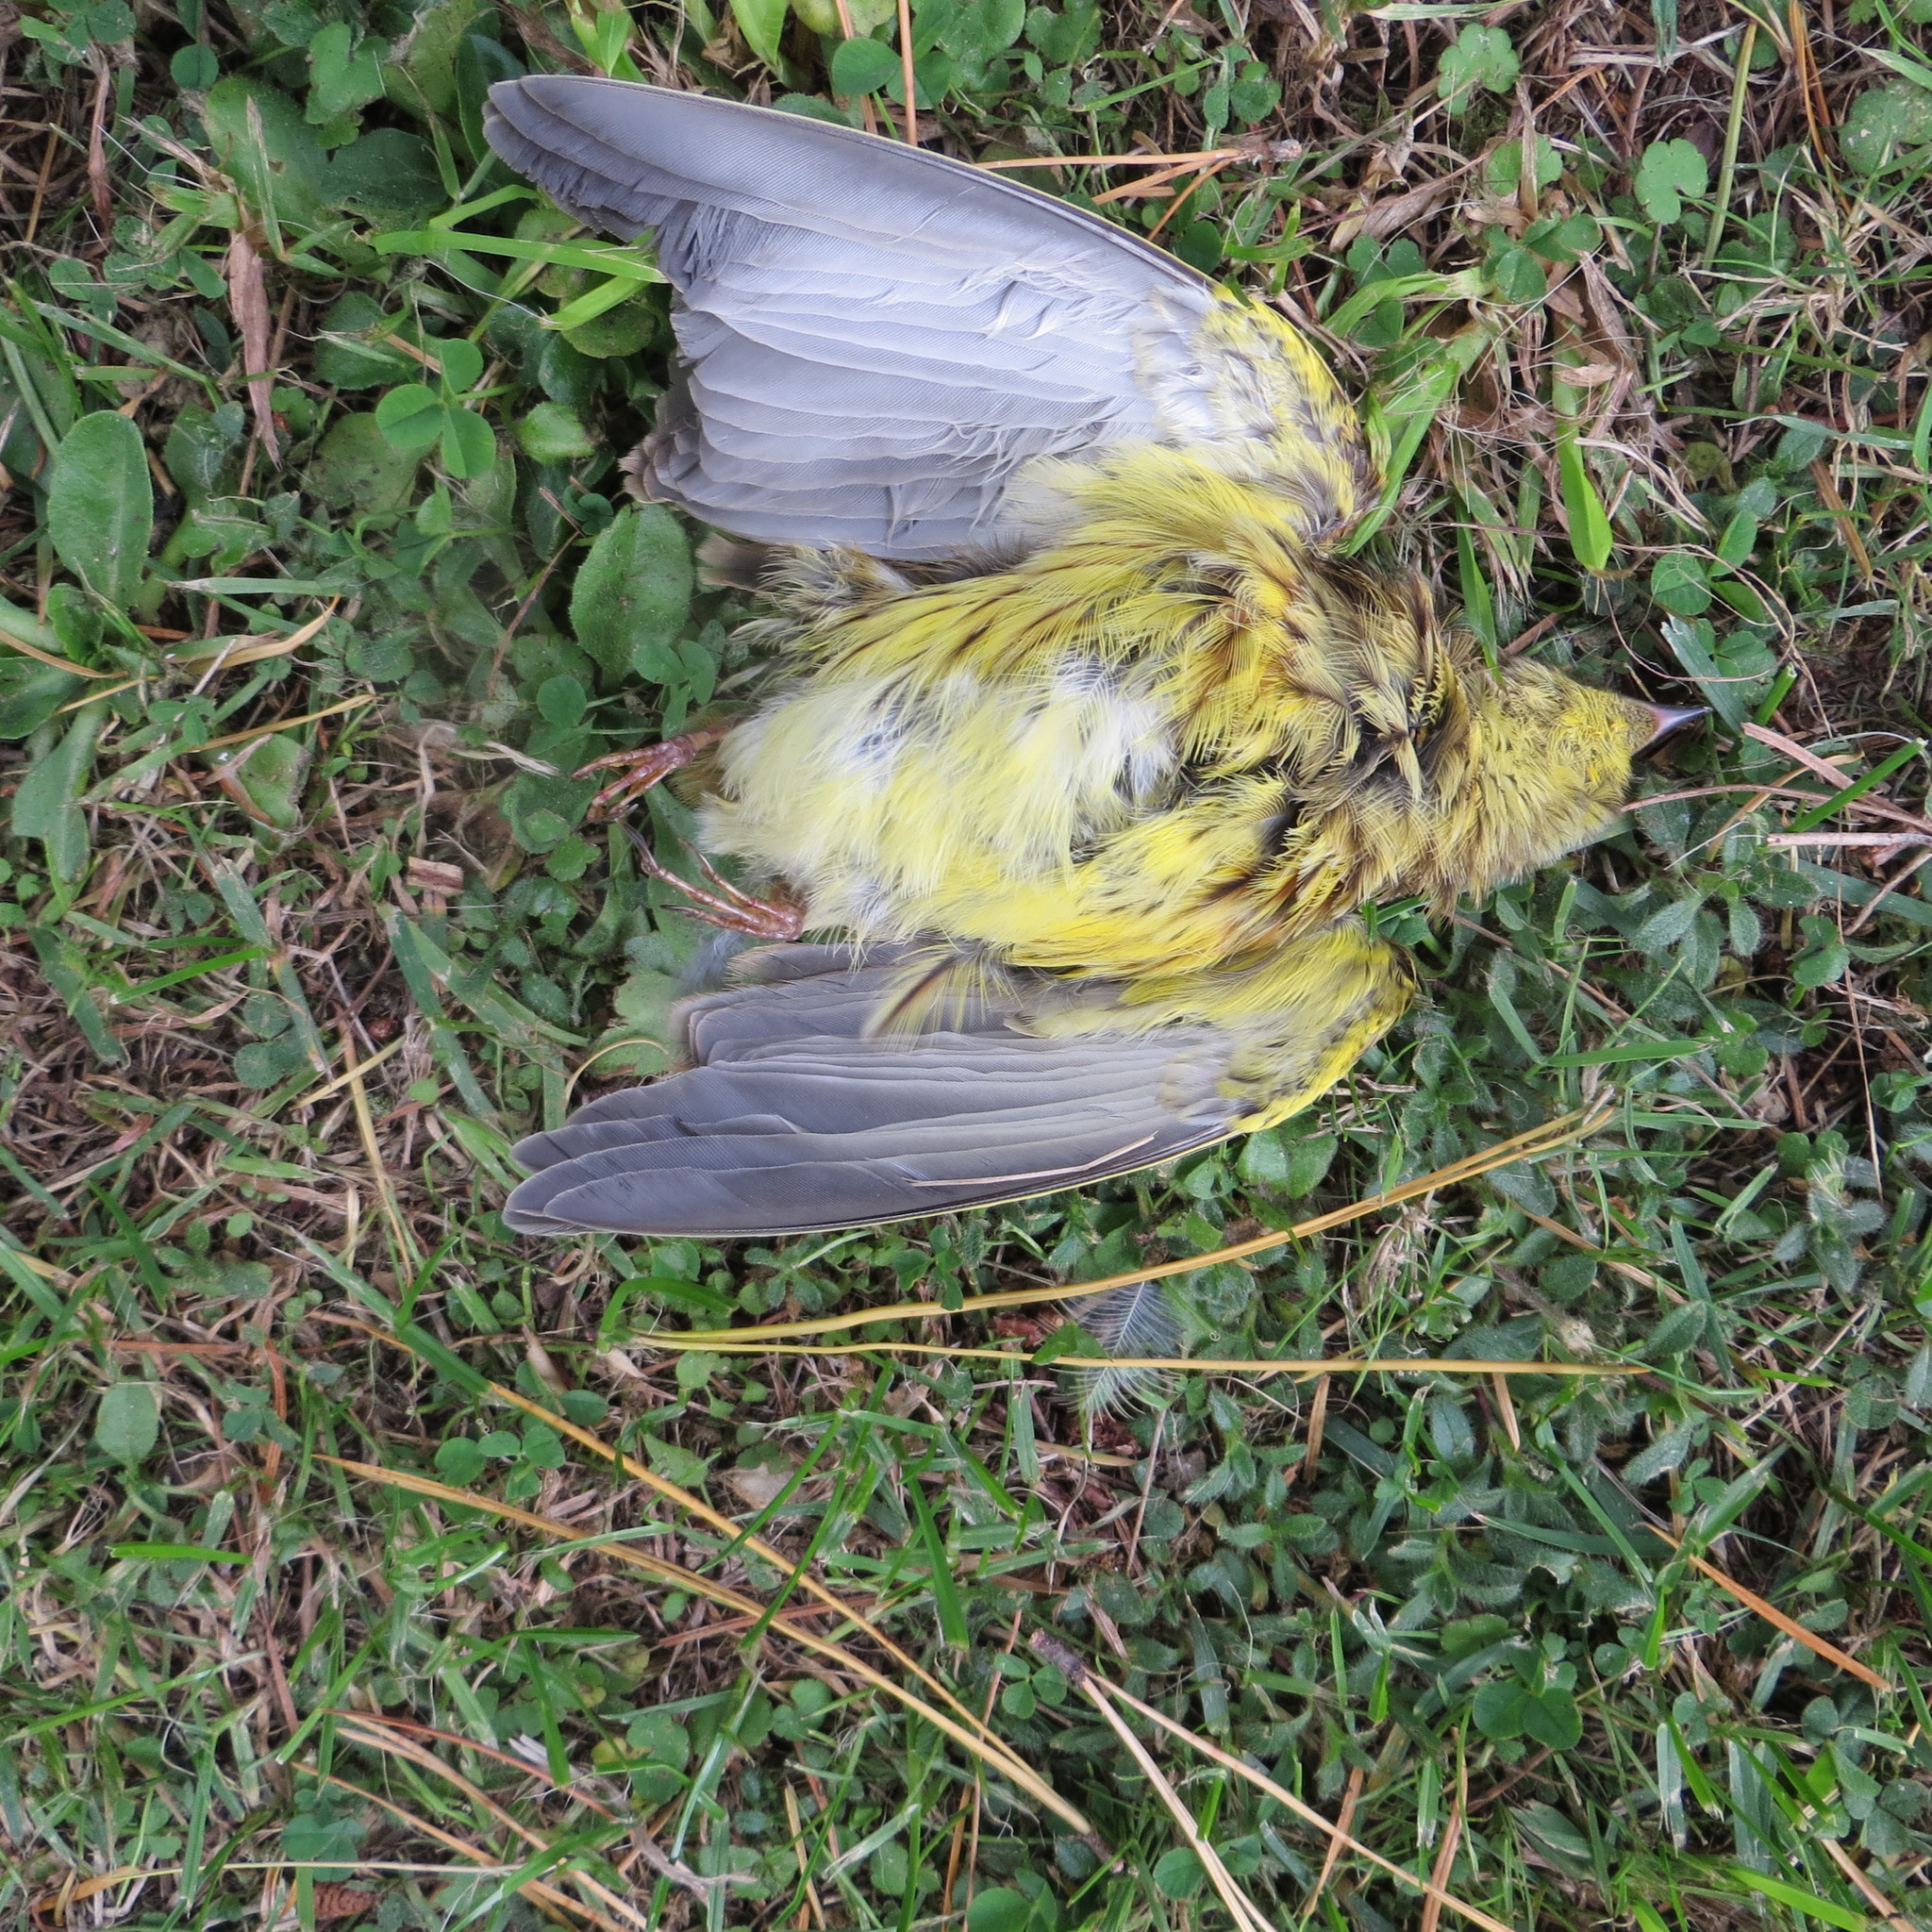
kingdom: Animalia
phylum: Chordata
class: Aves
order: Passeriformes
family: Emberizidae
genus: Emberiza
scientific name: Emberiza citrinella
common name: Yellowhammer
